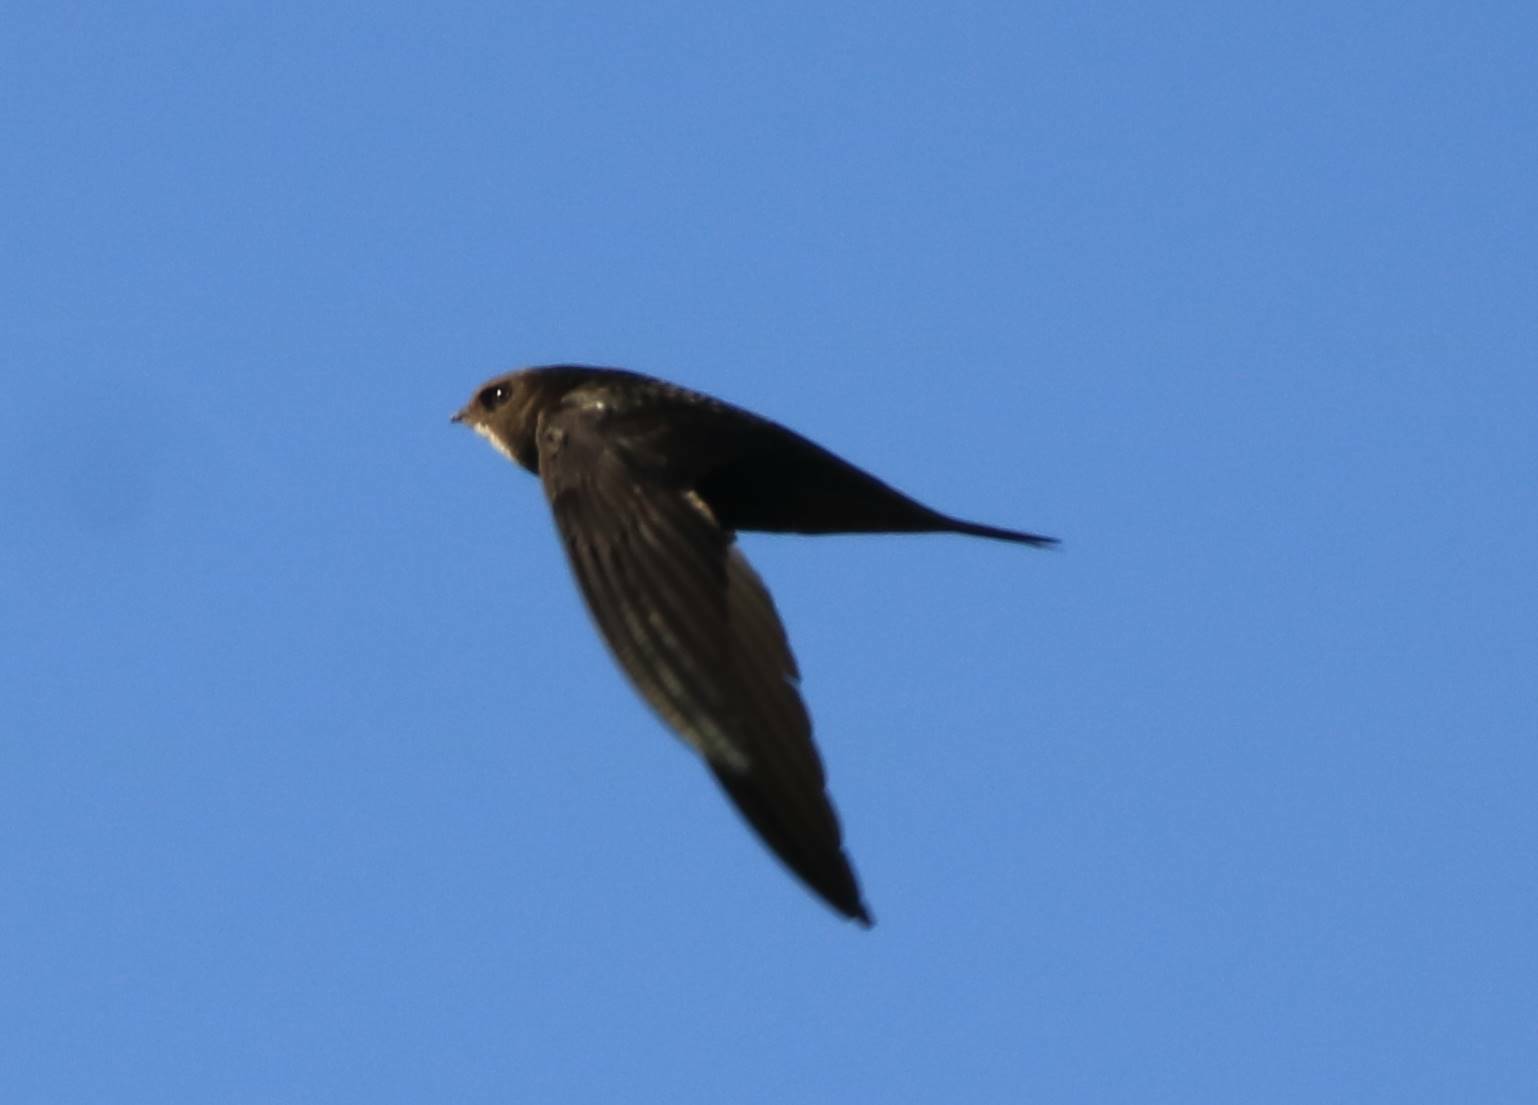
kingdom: Animalia
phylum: Chordata
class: Aves
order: Apodiformes
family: Apodidae
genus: Apus
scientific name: Apus apus
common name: Common swift
